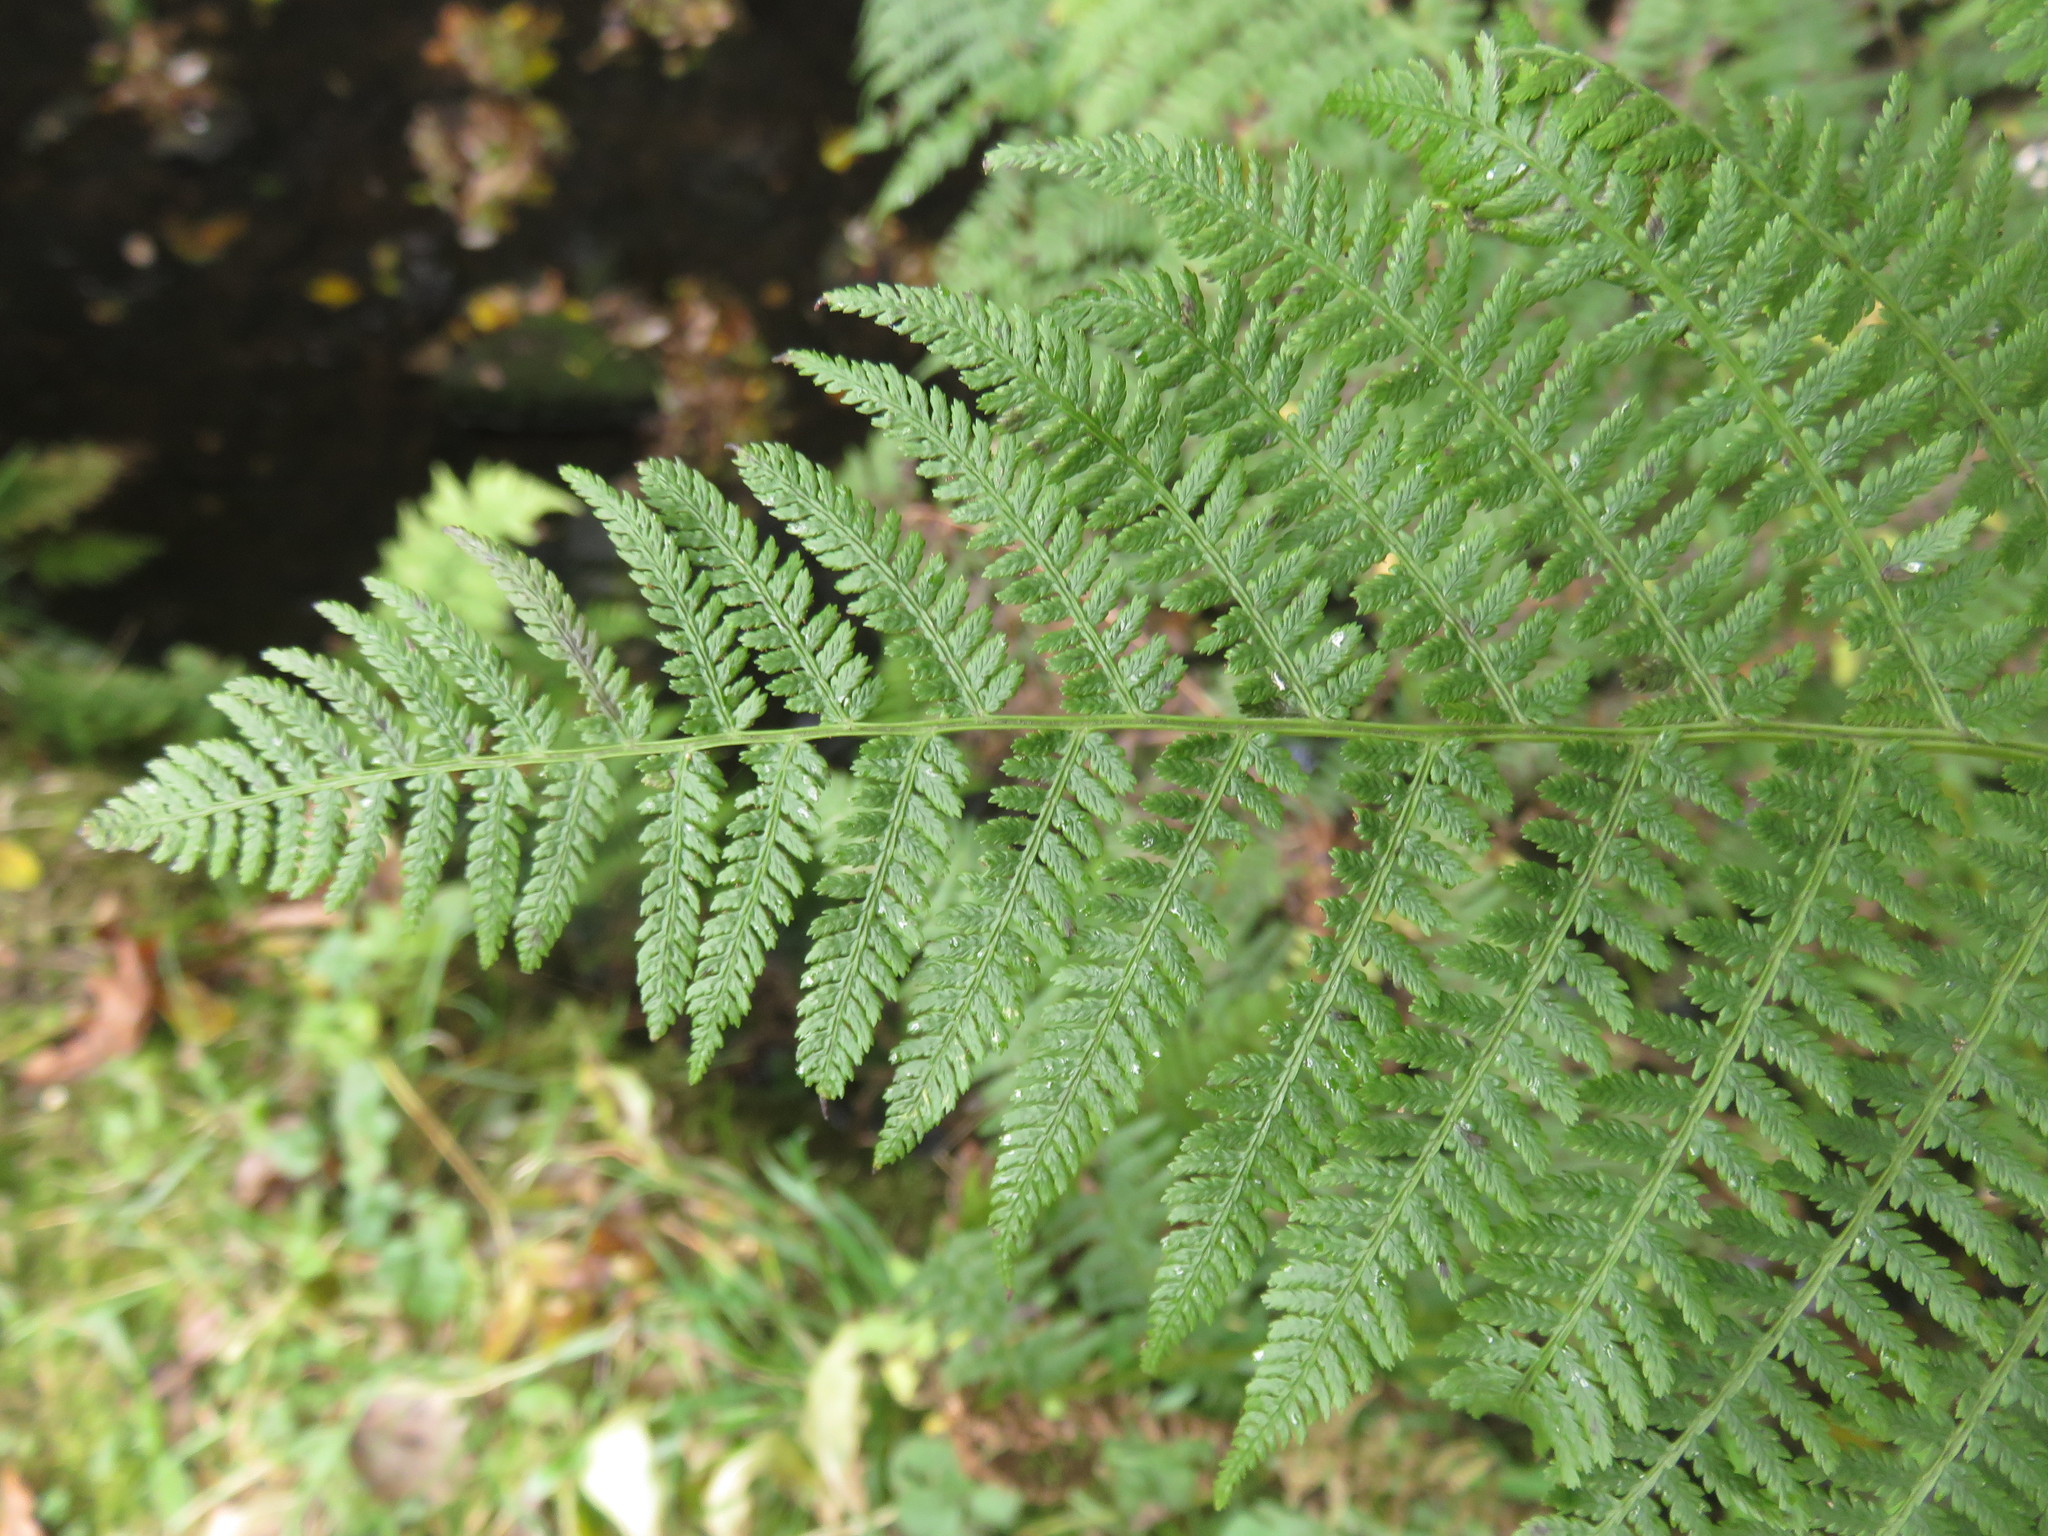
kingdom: Plantae
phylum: Tracheophyta
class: Polypodiopsida
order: Polypodiales
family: Athyriaceae
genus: Athyrium
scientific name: Athyrium filix-femina
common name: Lady fern
